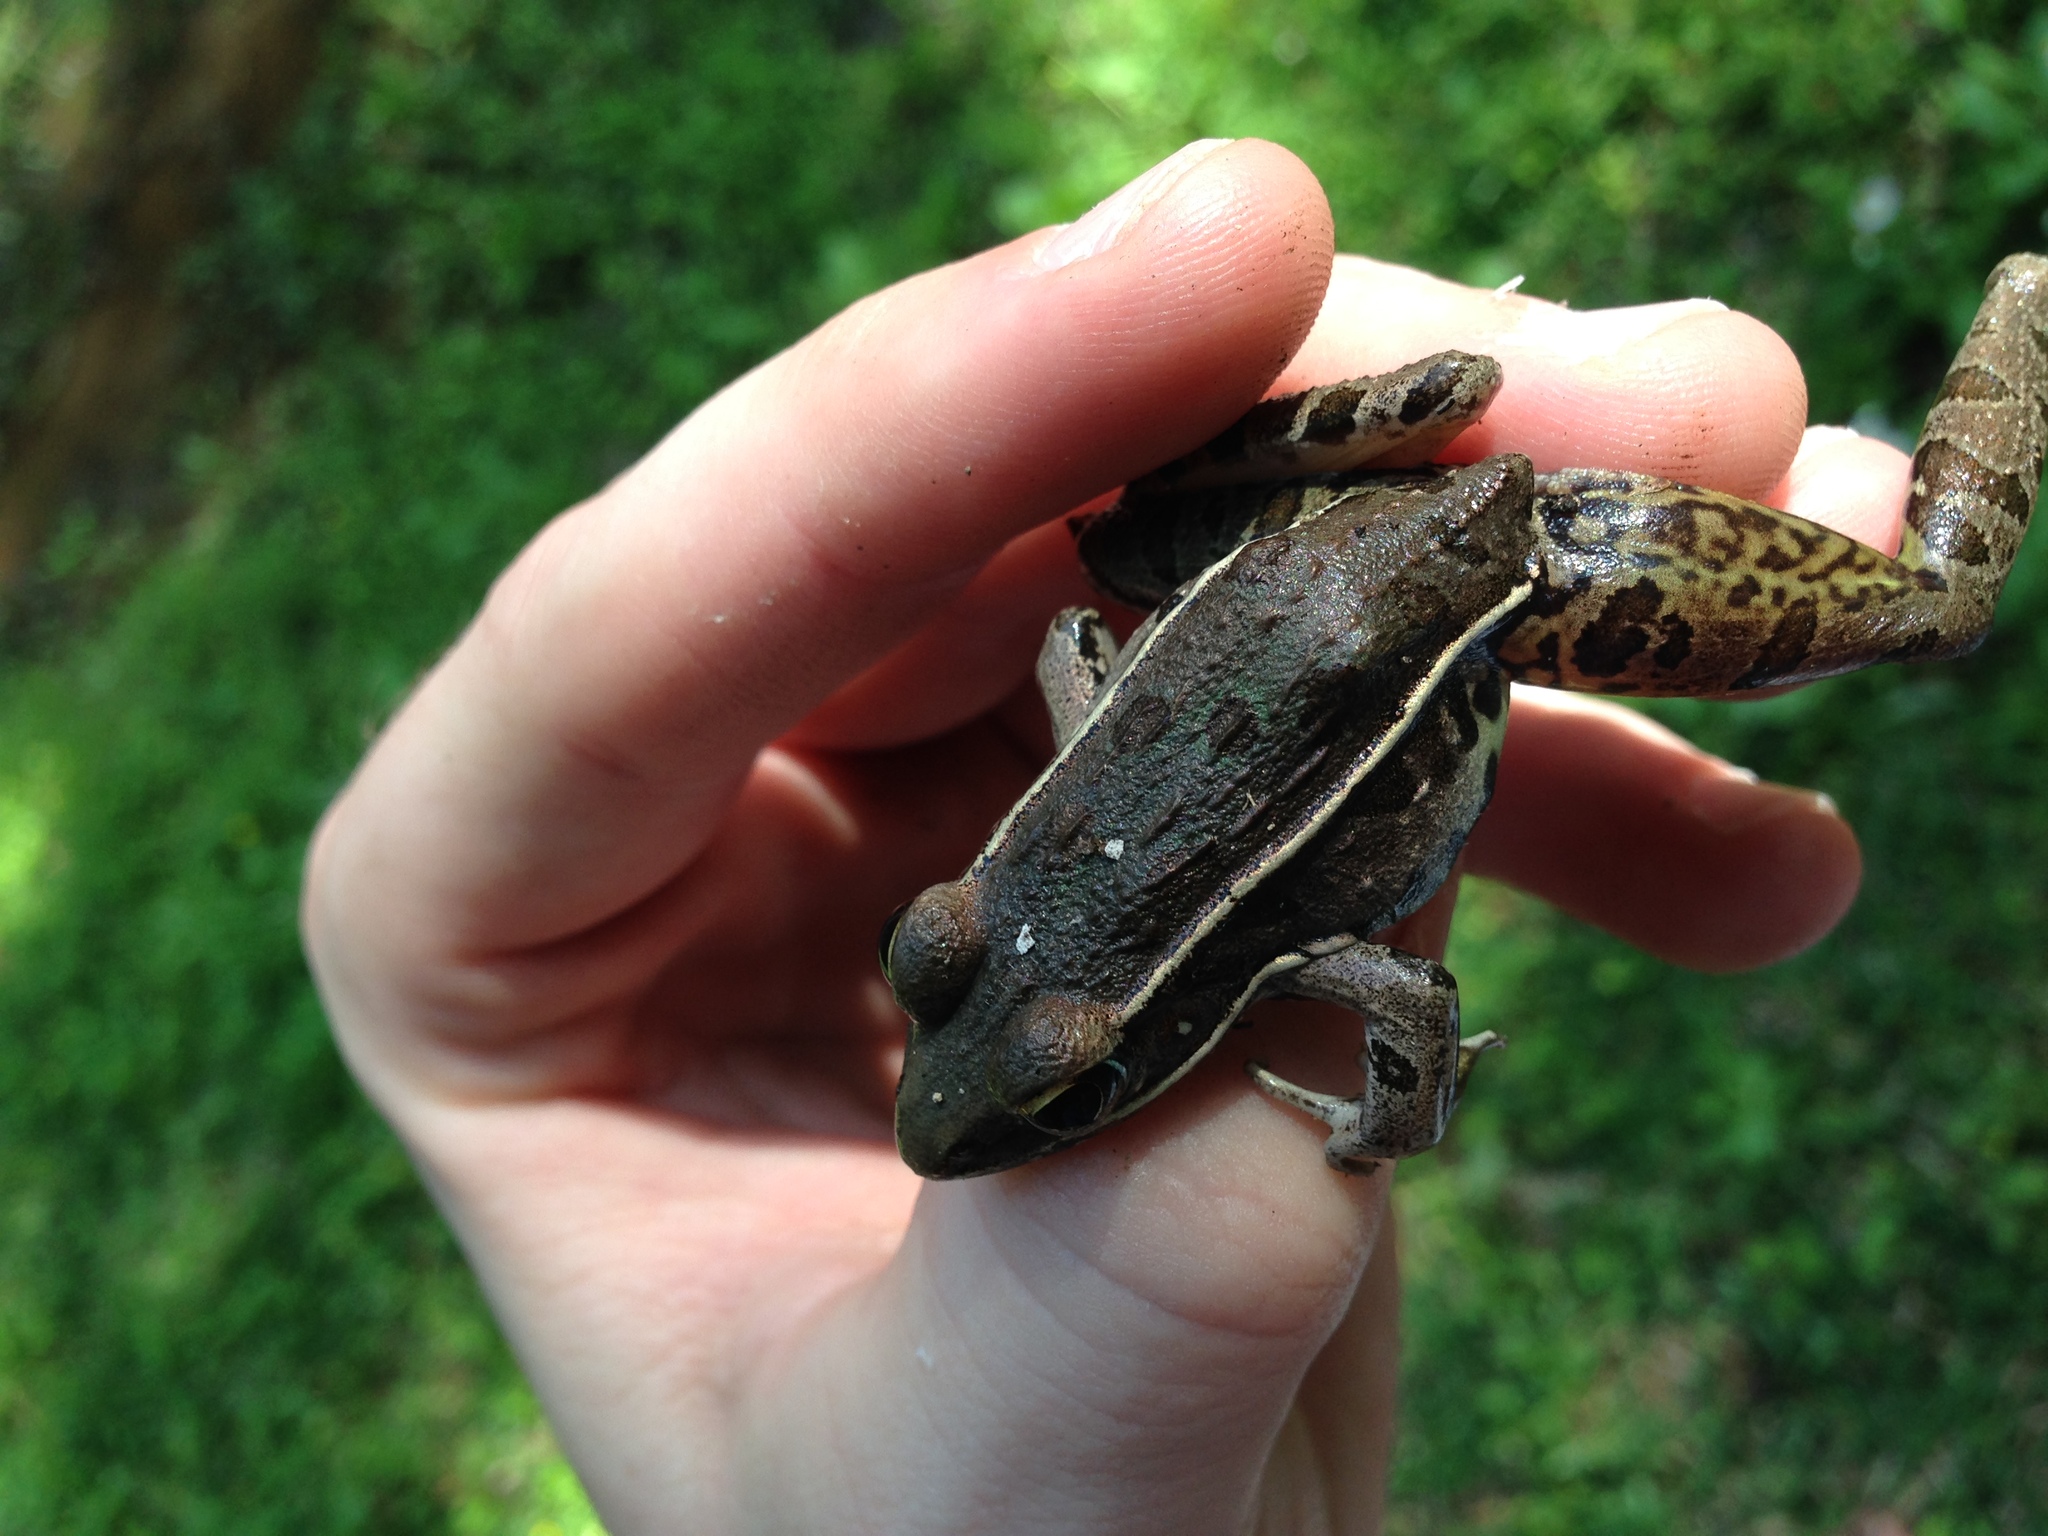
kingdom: Animalia
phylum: Chordata
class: Amphibia
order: Anura
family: Ranidae
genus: Lithobates
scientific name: Lithobates sphenocephalus
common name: Southern leopard frog
